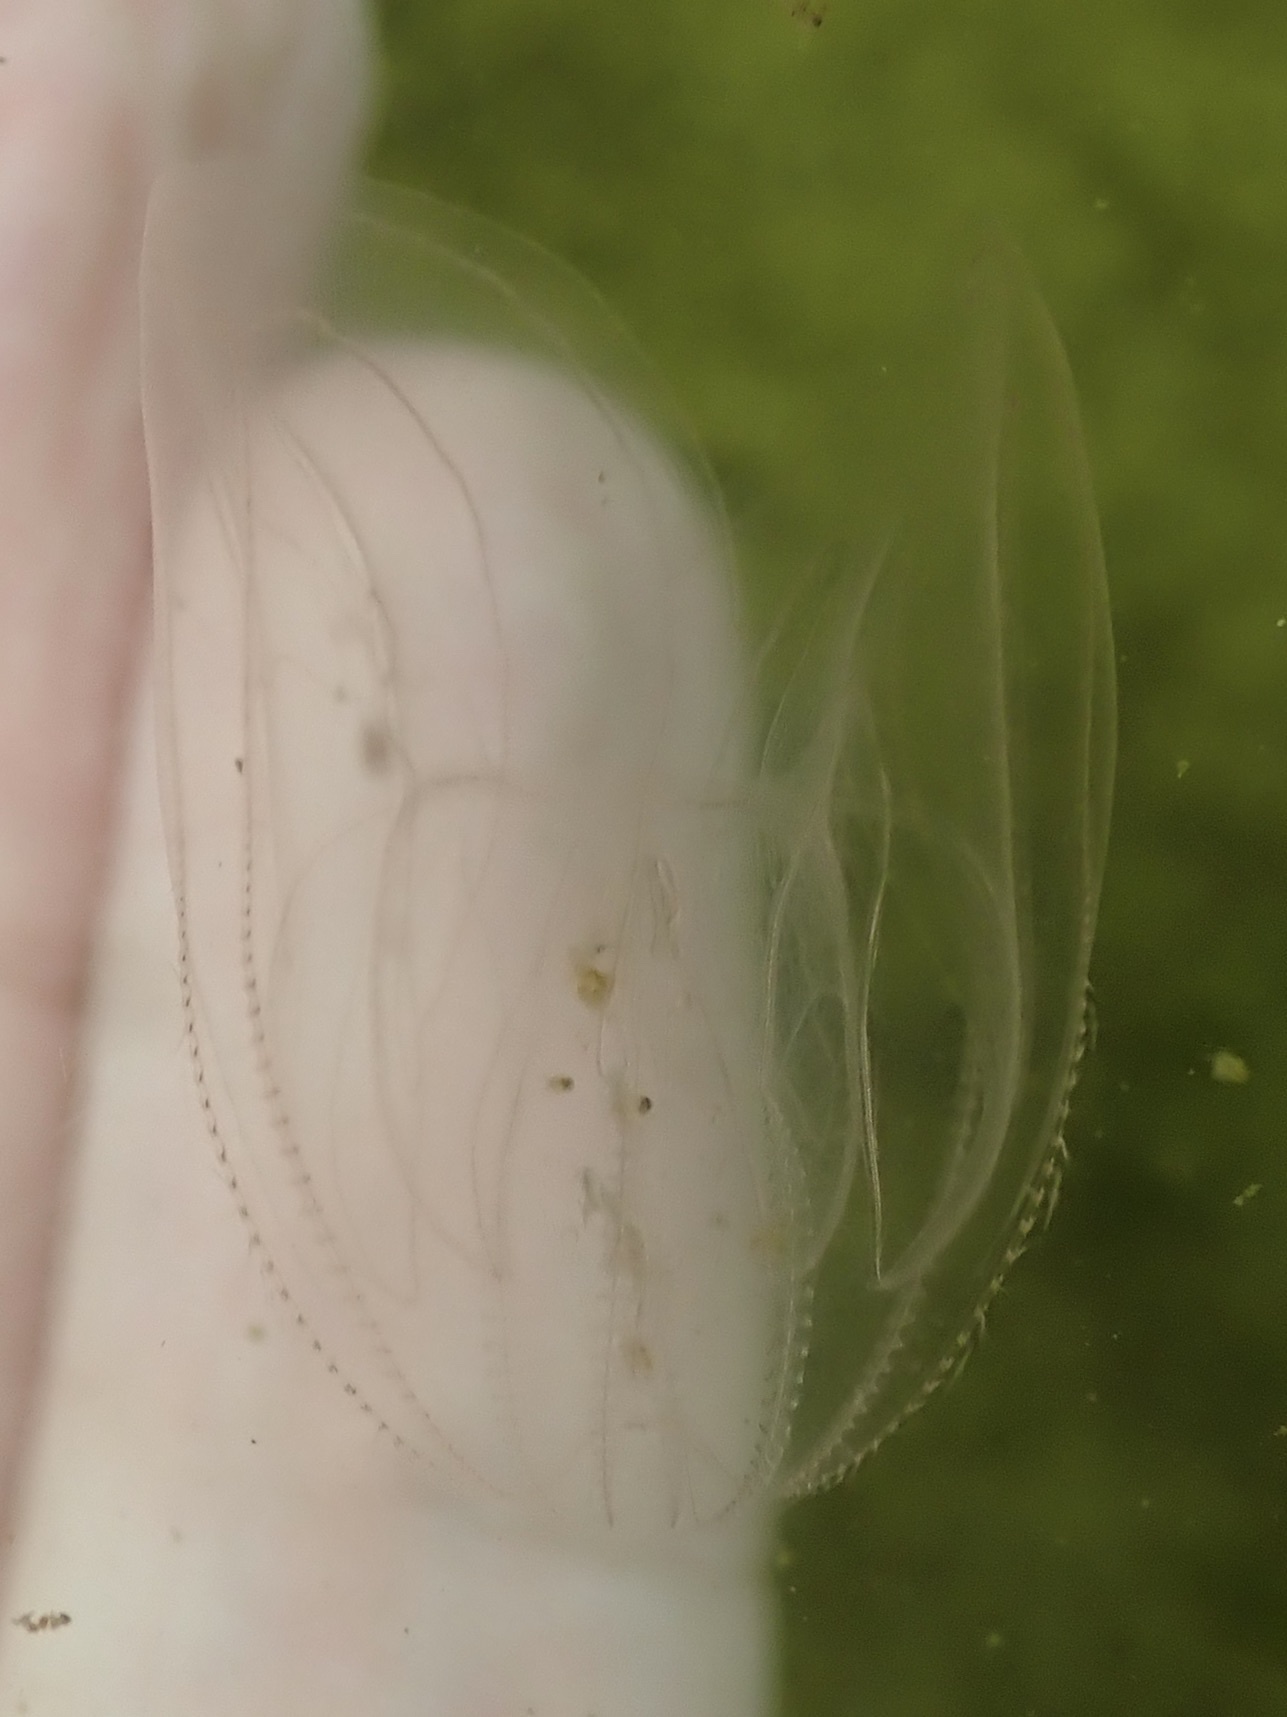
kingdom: Animalia
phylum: Ctenophora
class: Tentaculata
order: Lobata
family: Bolinopsidae
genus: Mnemiopsis
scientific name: Mnemiopsis leidyi
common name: American comb jelly
